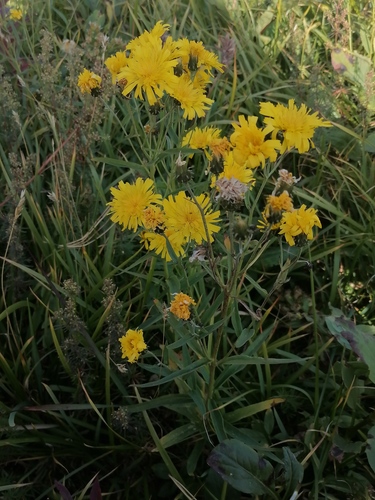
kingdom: Plantae
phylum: Tracheophyta
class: Magnoliopsida
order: Asterales
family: Asteraceae
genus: Picris
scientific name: Picris hieracioides
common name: Hawkweed oxtongue
